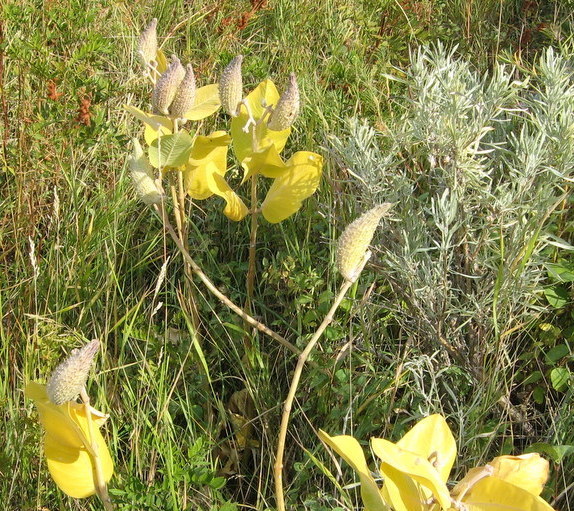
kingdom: Plantae
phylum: Tracheophyta
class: Magnoliopsida
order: Gentianales
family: Apocynaceae
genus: Asclepias
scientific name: Asclepias speciosa
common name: Showy milkweed
